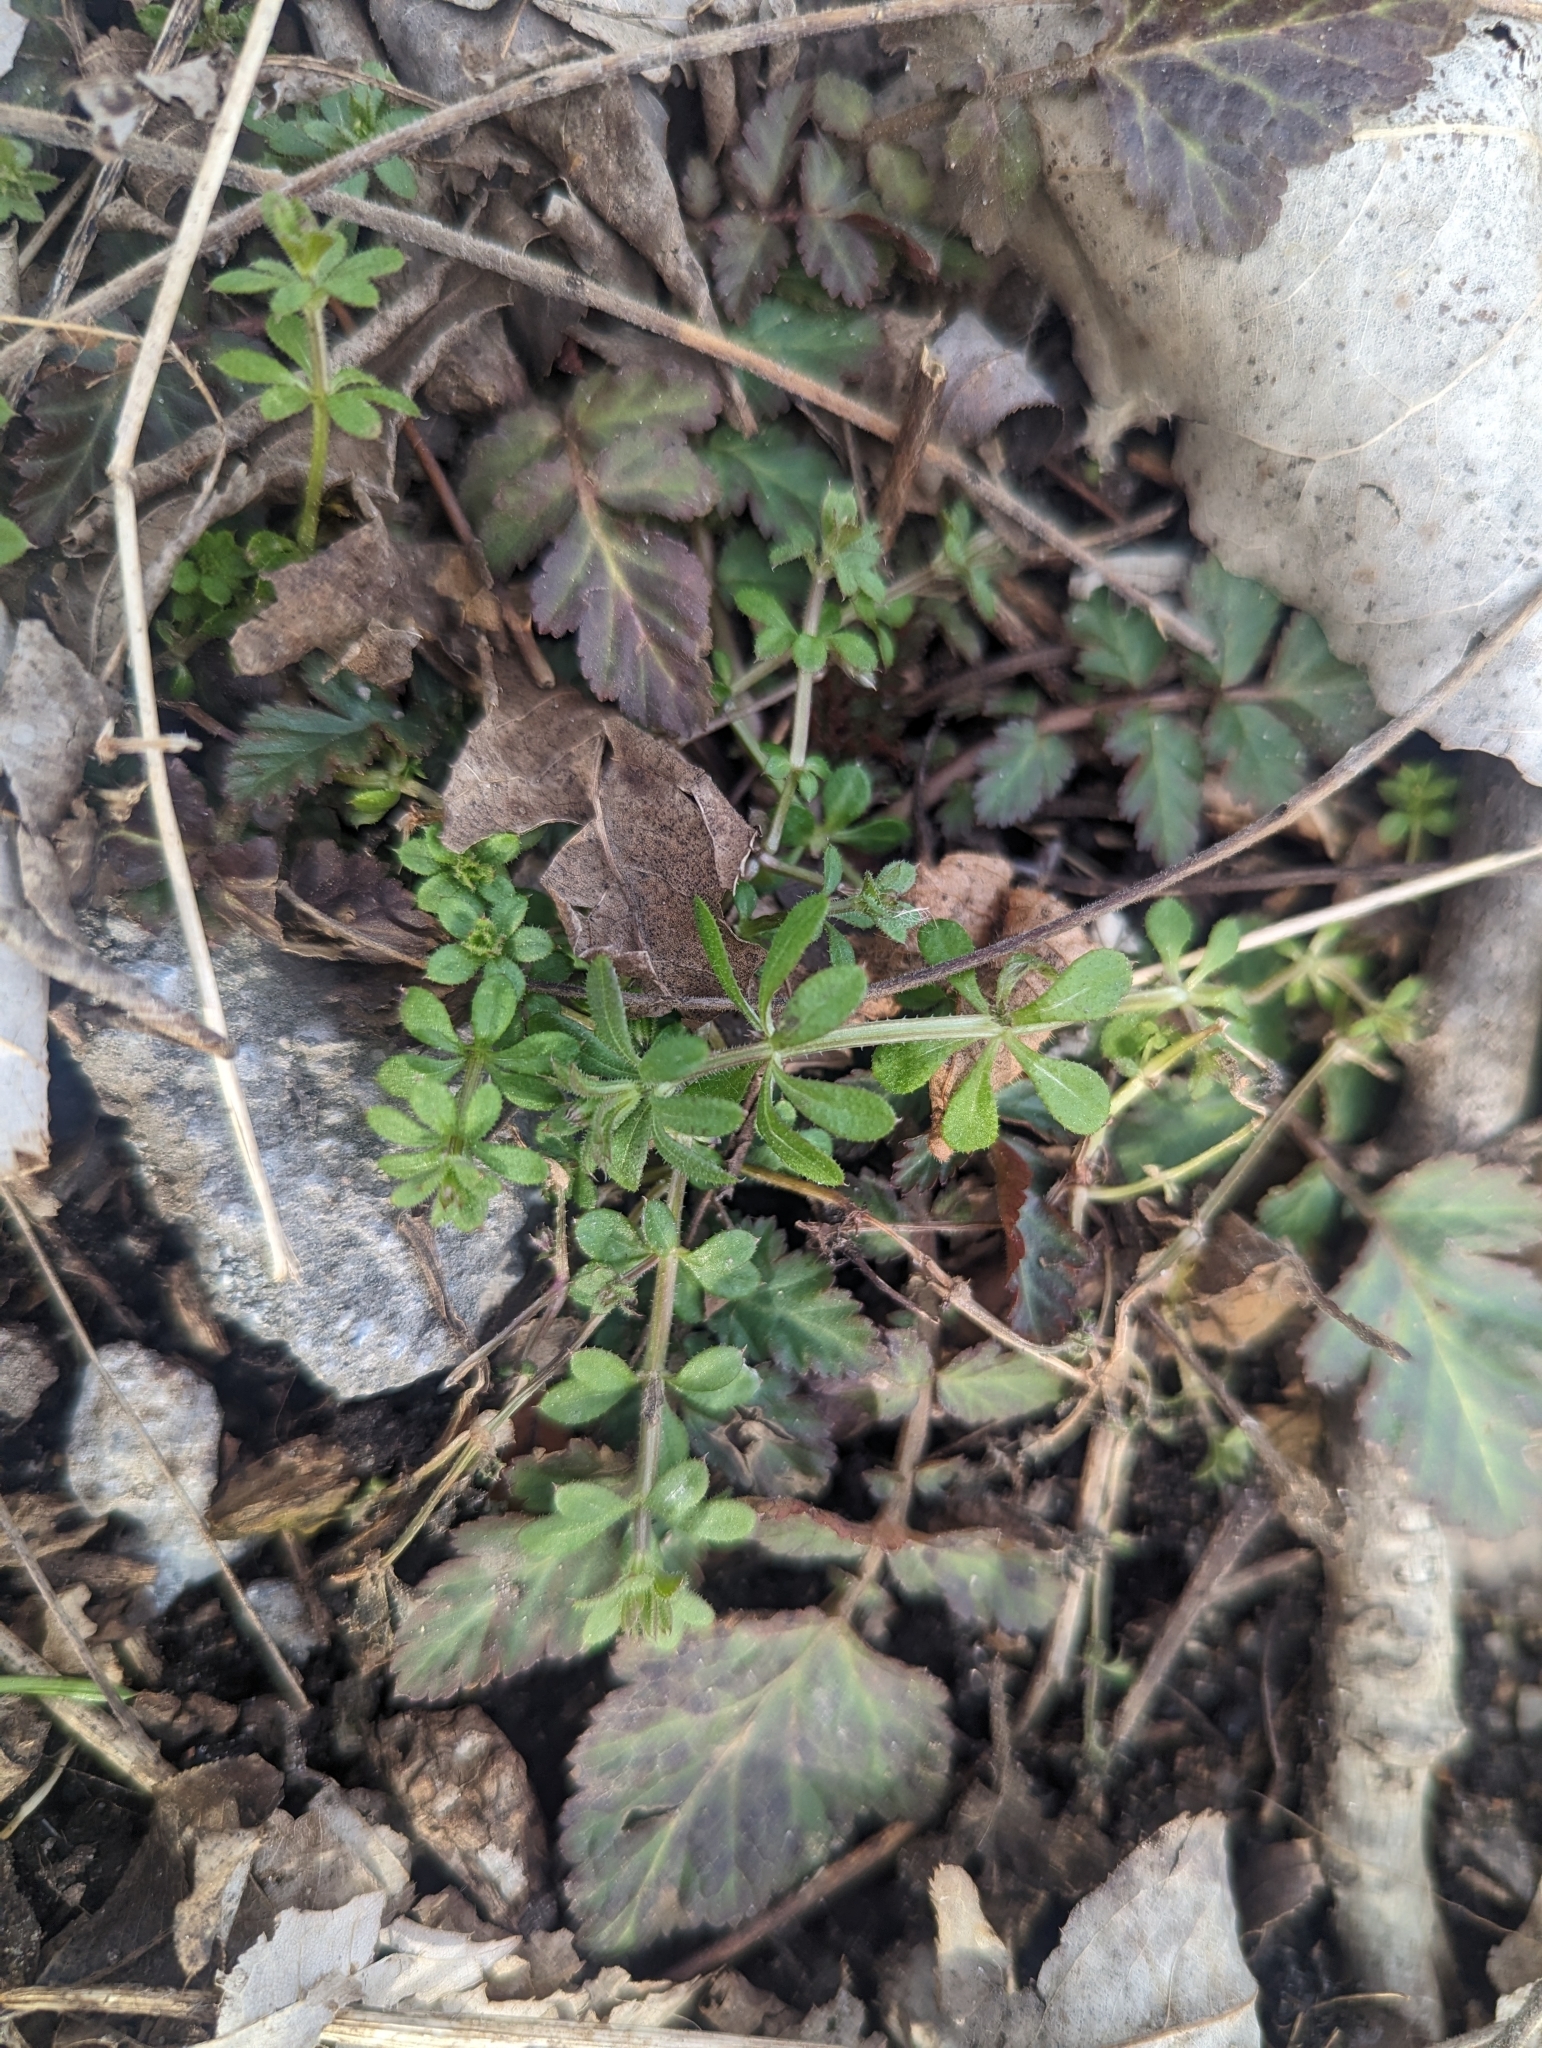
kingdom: Plantae
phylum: Tracheophyta
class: Magnoliopsida
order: Gentianales
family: Rubiaceae
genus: Galium
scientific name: Galium aparine
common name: Cleavers
